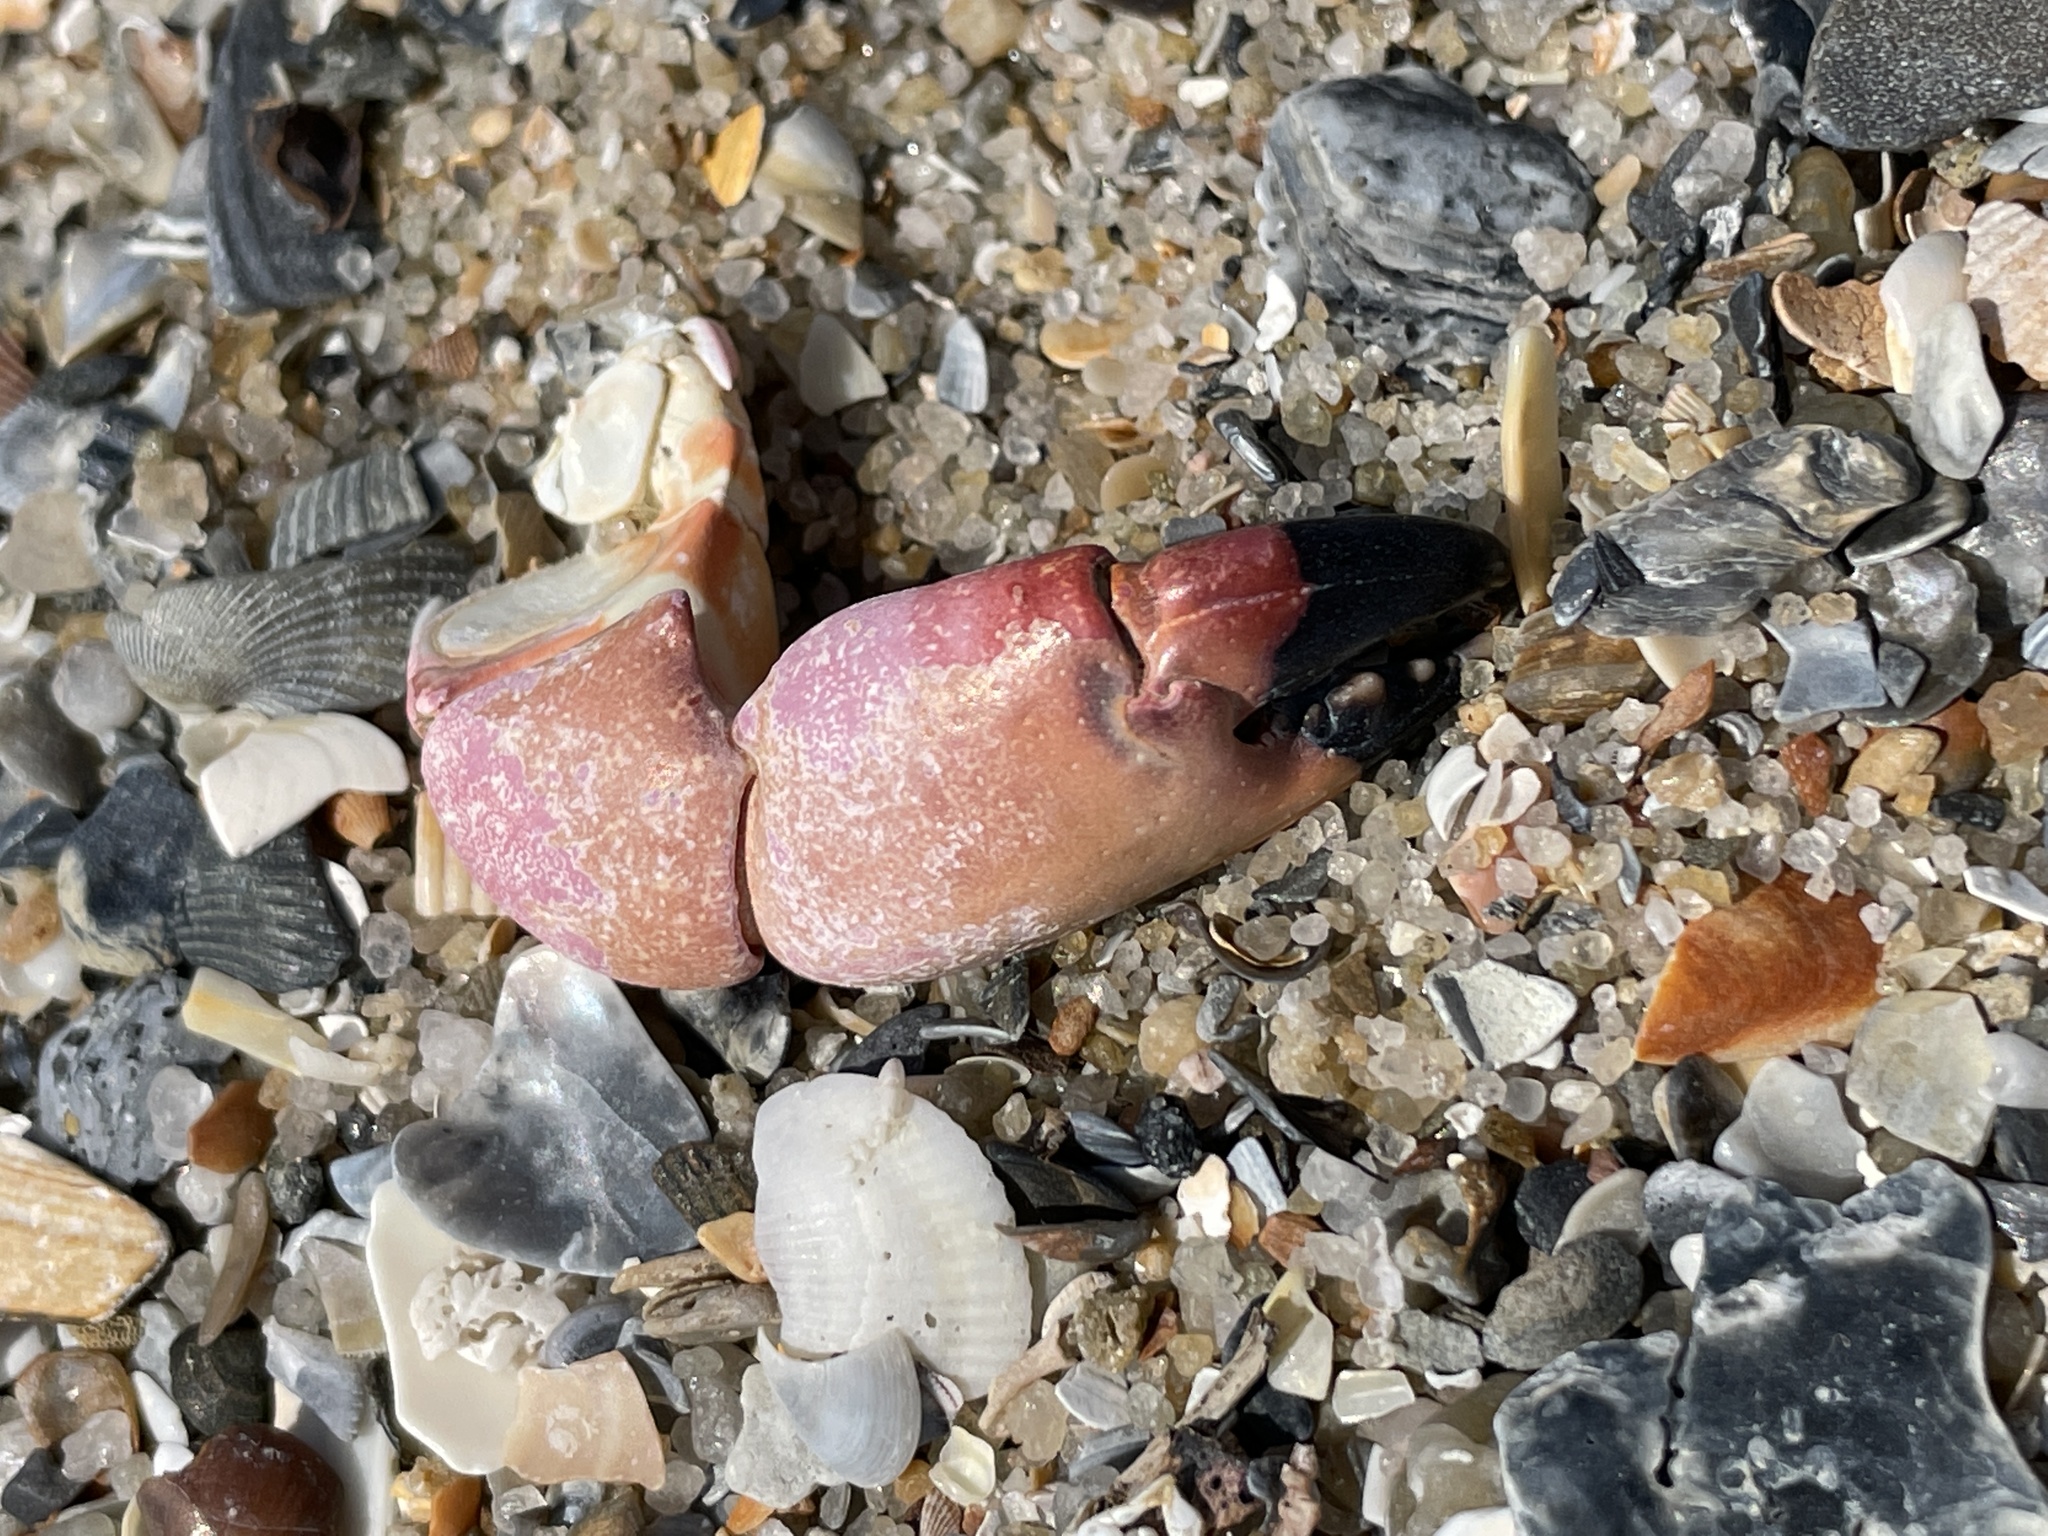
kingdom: Animalia
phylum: Arthropoda
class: Malacostraca
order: Decapoda
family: Menippidae
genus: Menippe
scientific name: Menippe mercenaria
